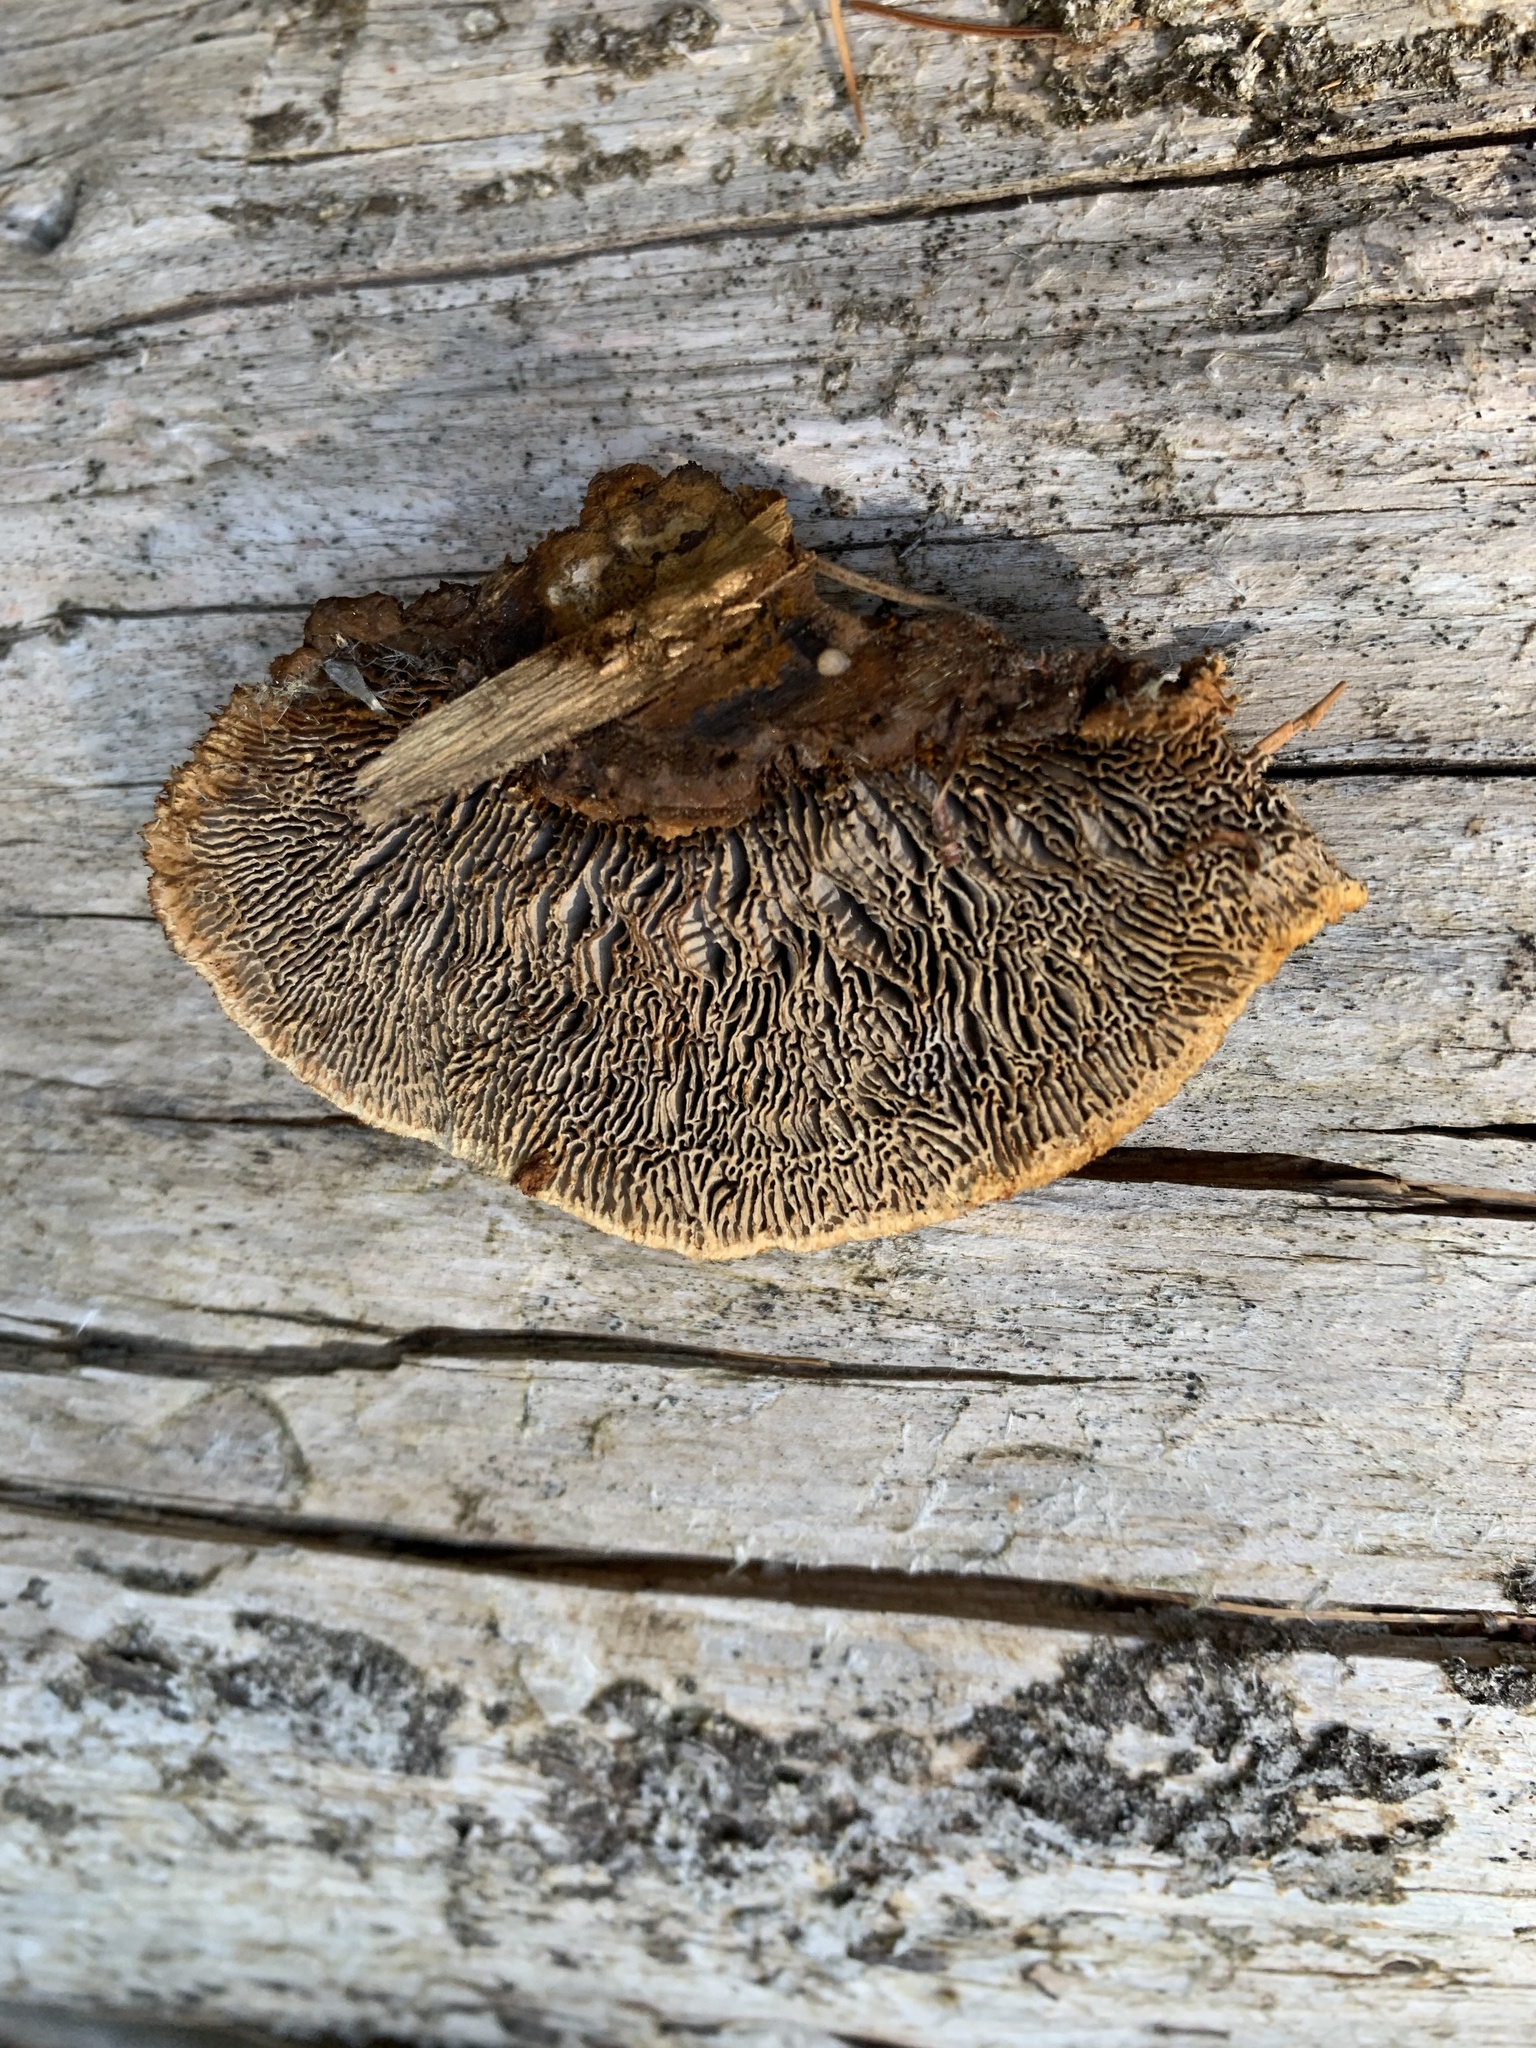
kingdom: Fungi
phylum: Basidiomycota
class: Agaricomycetes
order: Gloeophyllales
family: Gloeophyllaceae
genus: Gloeophyllum
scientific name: Gloeophyllum sepiarium
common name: Conifer mazegill
